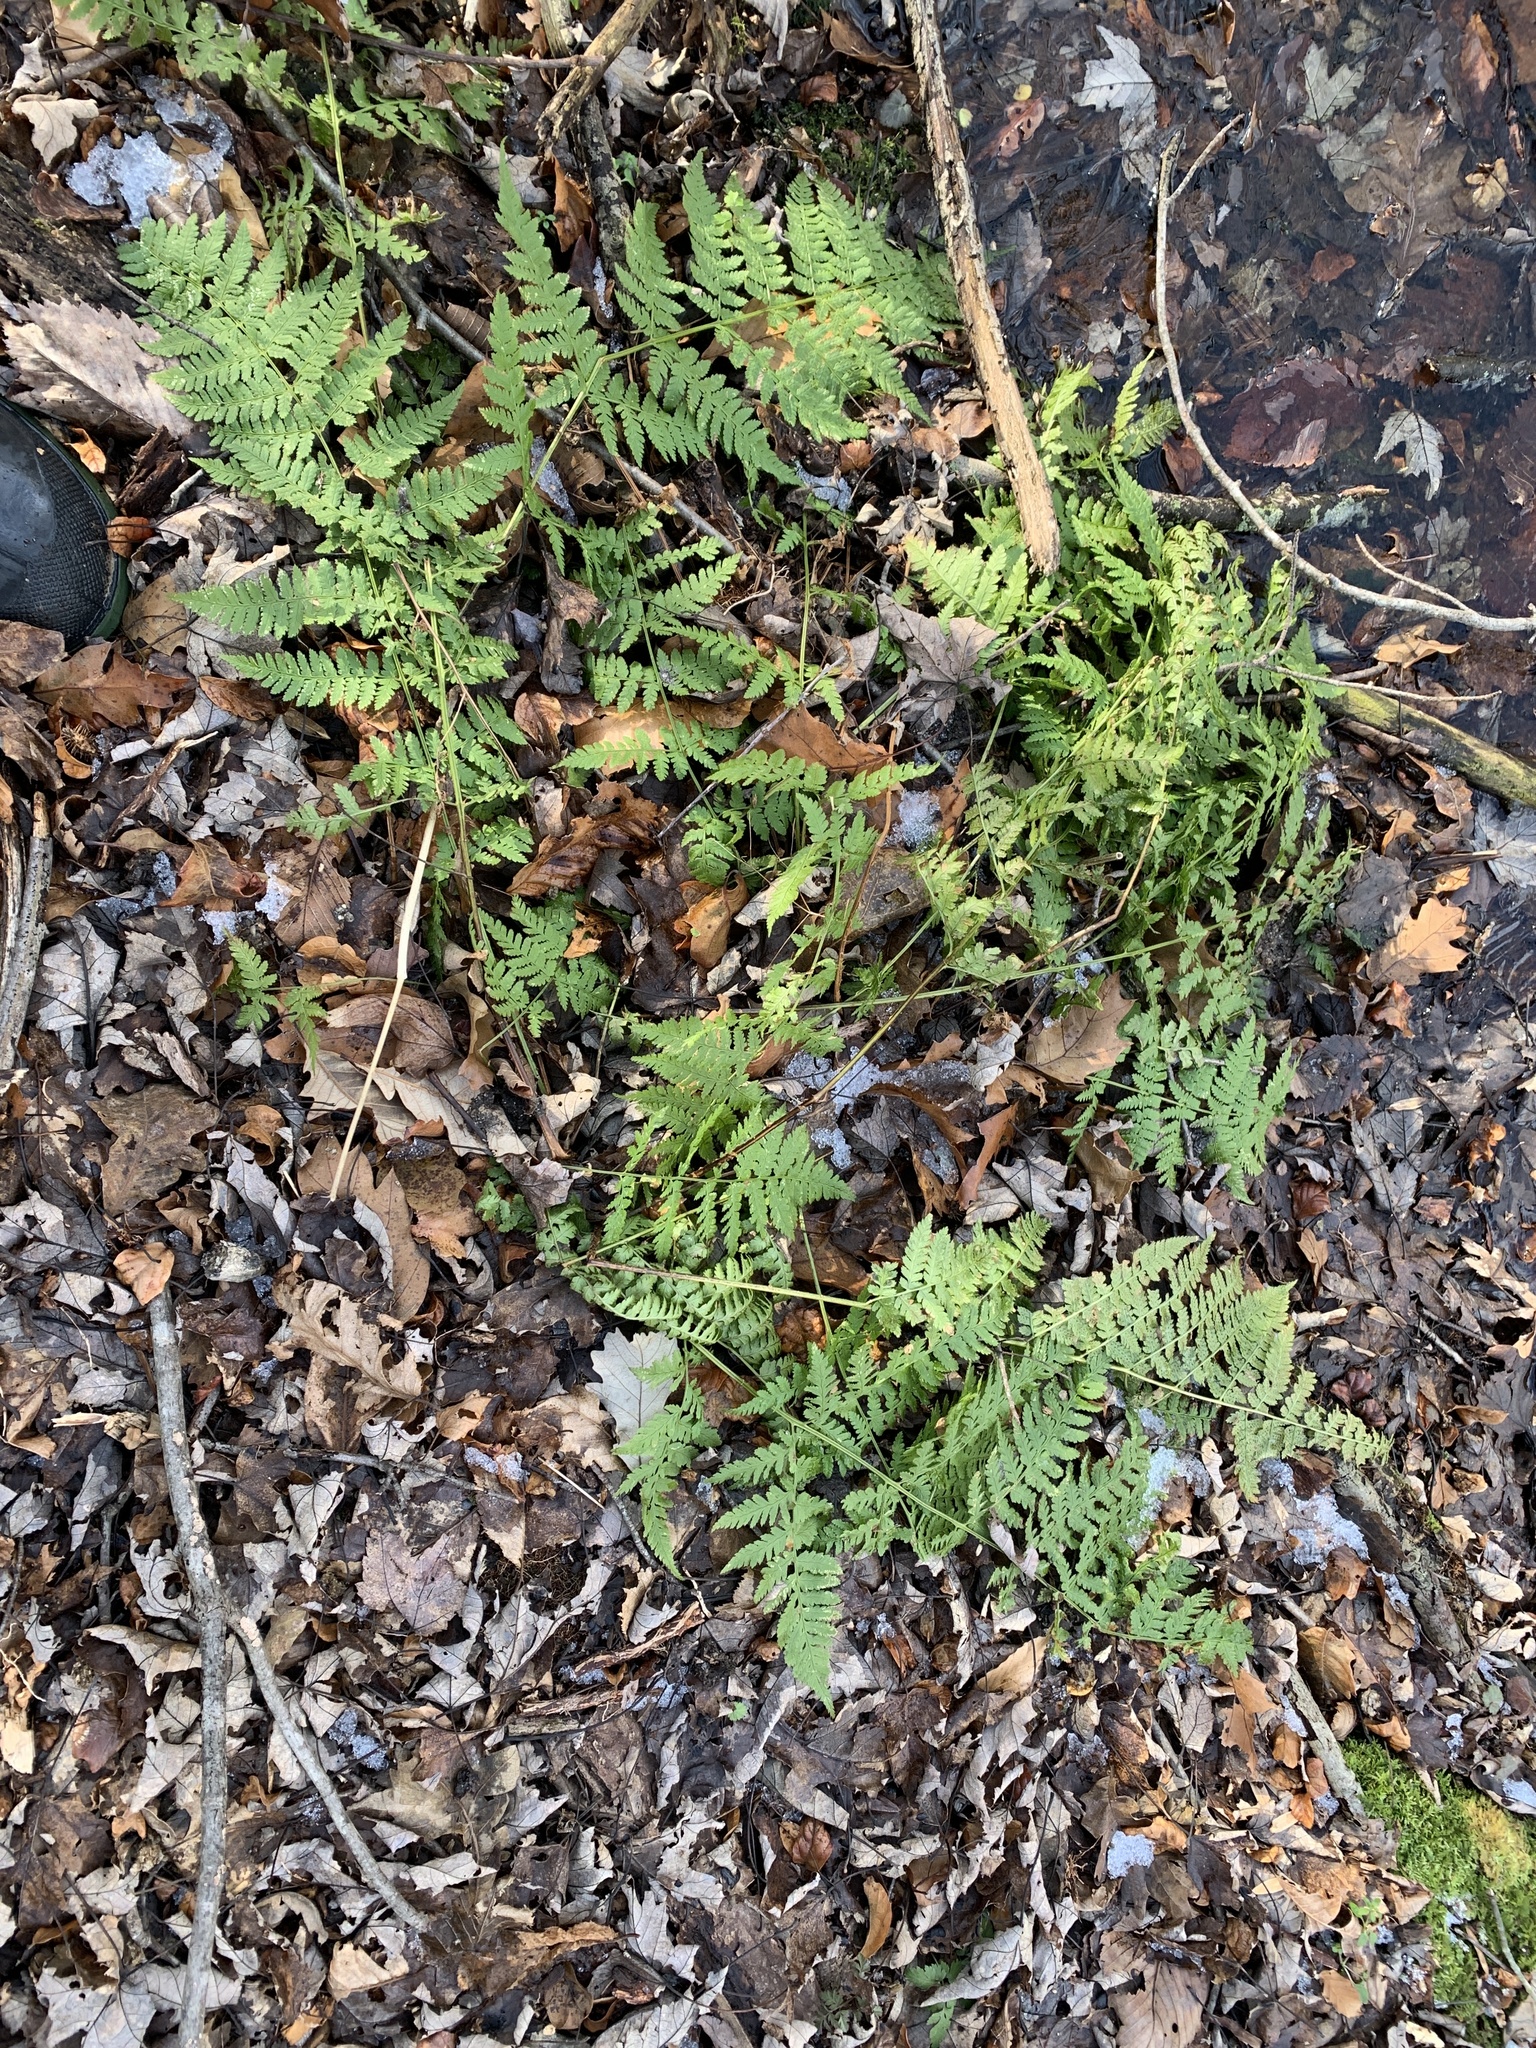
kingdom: Plantae
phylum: Tracheophyta
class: Polypodiopsida
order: Polypodiales
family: Dryopteridaceae
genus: Dryopteris
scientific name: Dryopteris carthusiana
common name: Narrow buckler-fern
